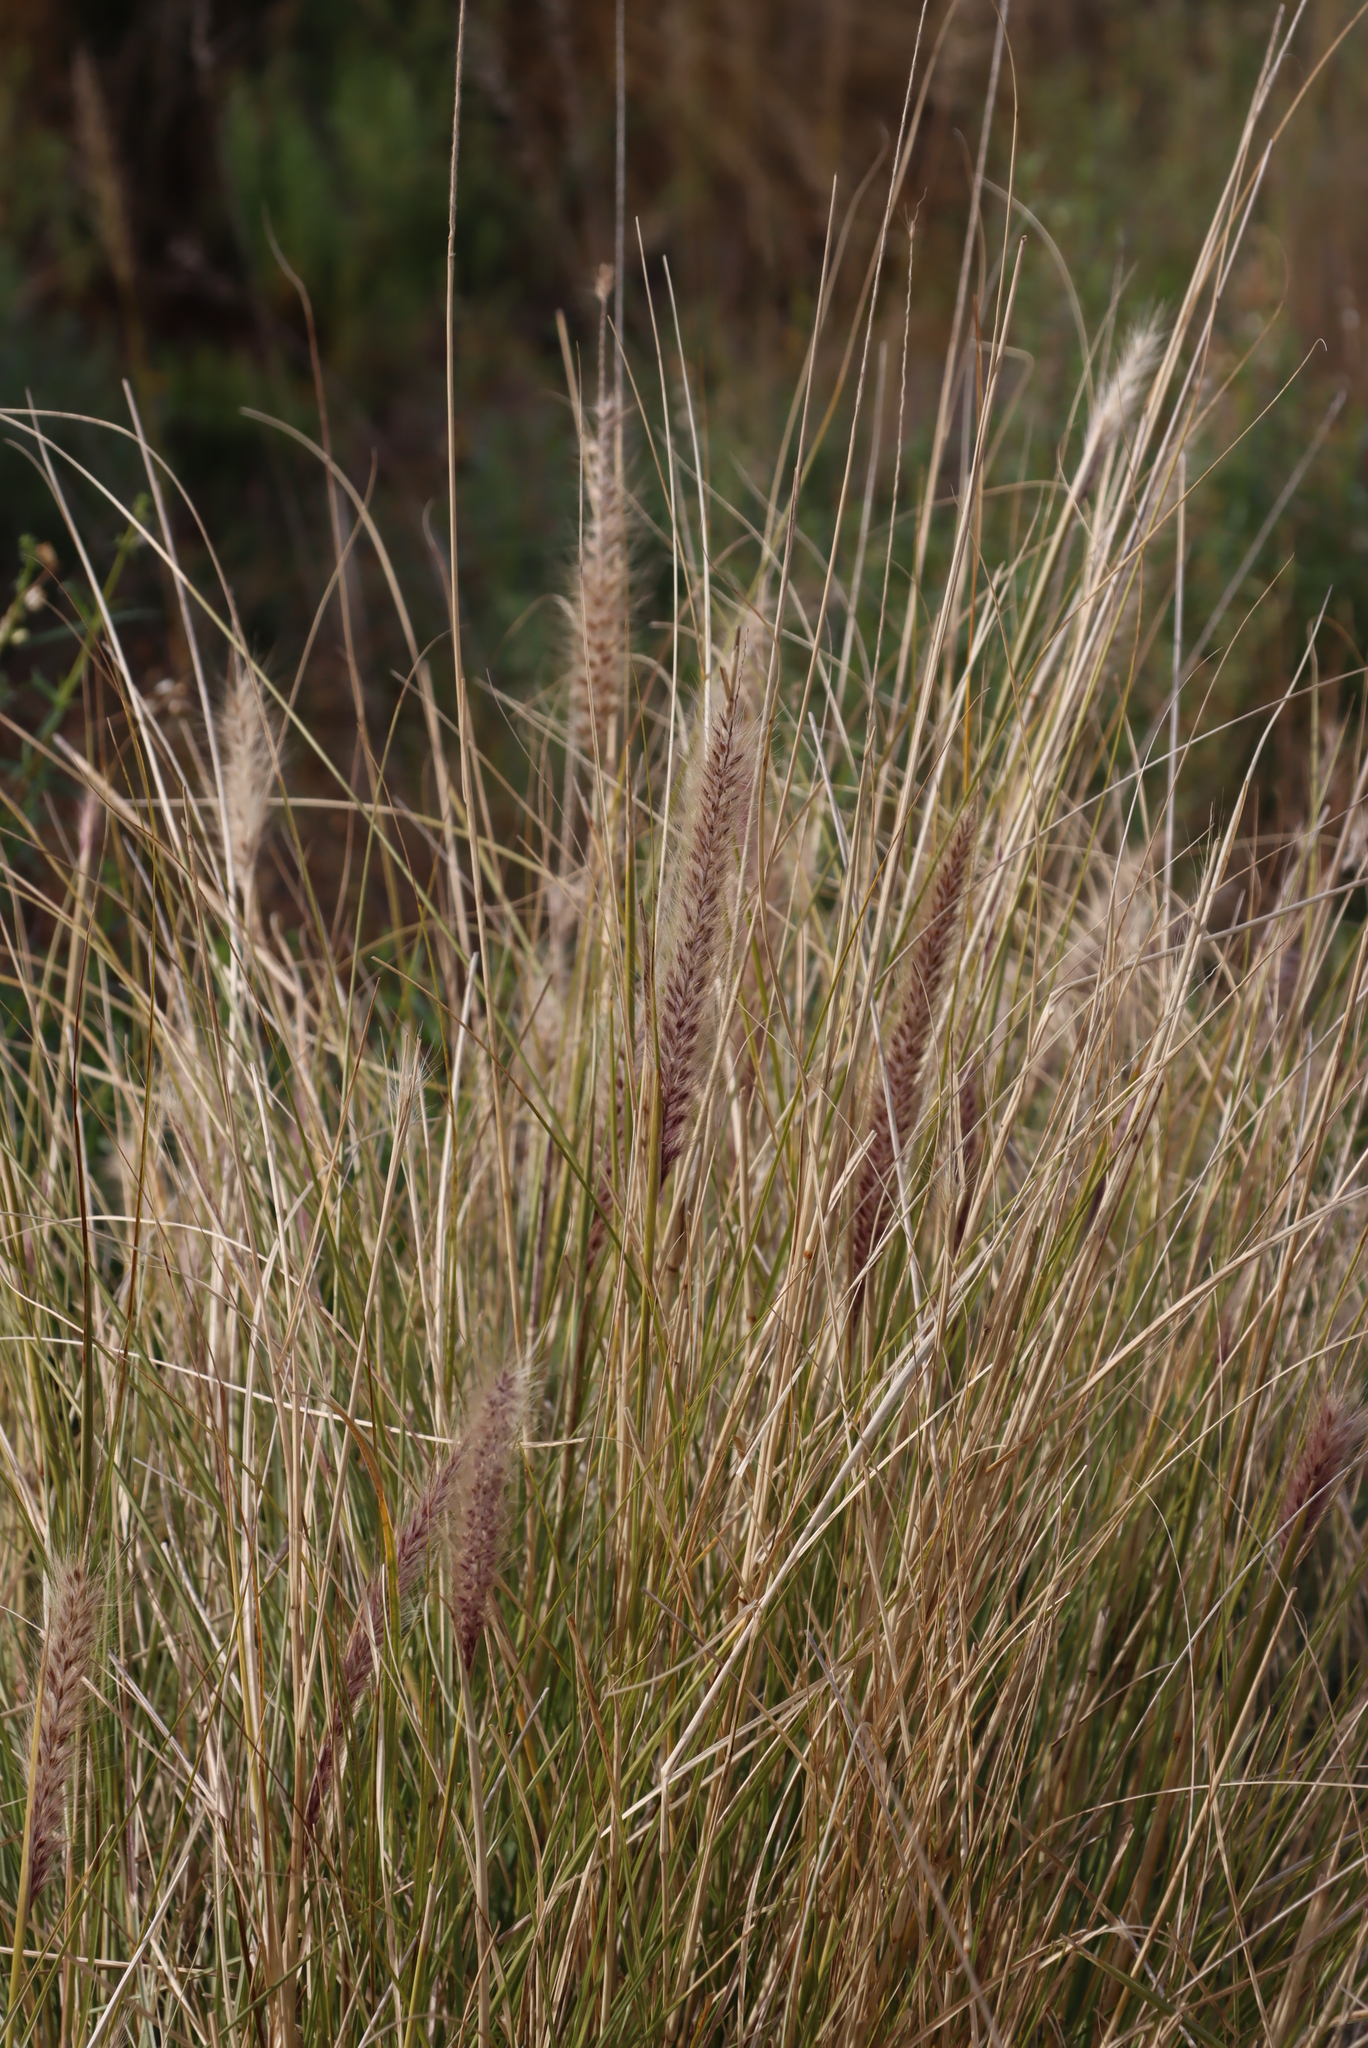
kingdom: Plantae
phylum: Tracheophyta
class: Liliopsida
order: Poales
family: Poaceae
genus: Cenchrus
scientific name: Cenchrus setaceus
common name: Crimson fountaingrass
